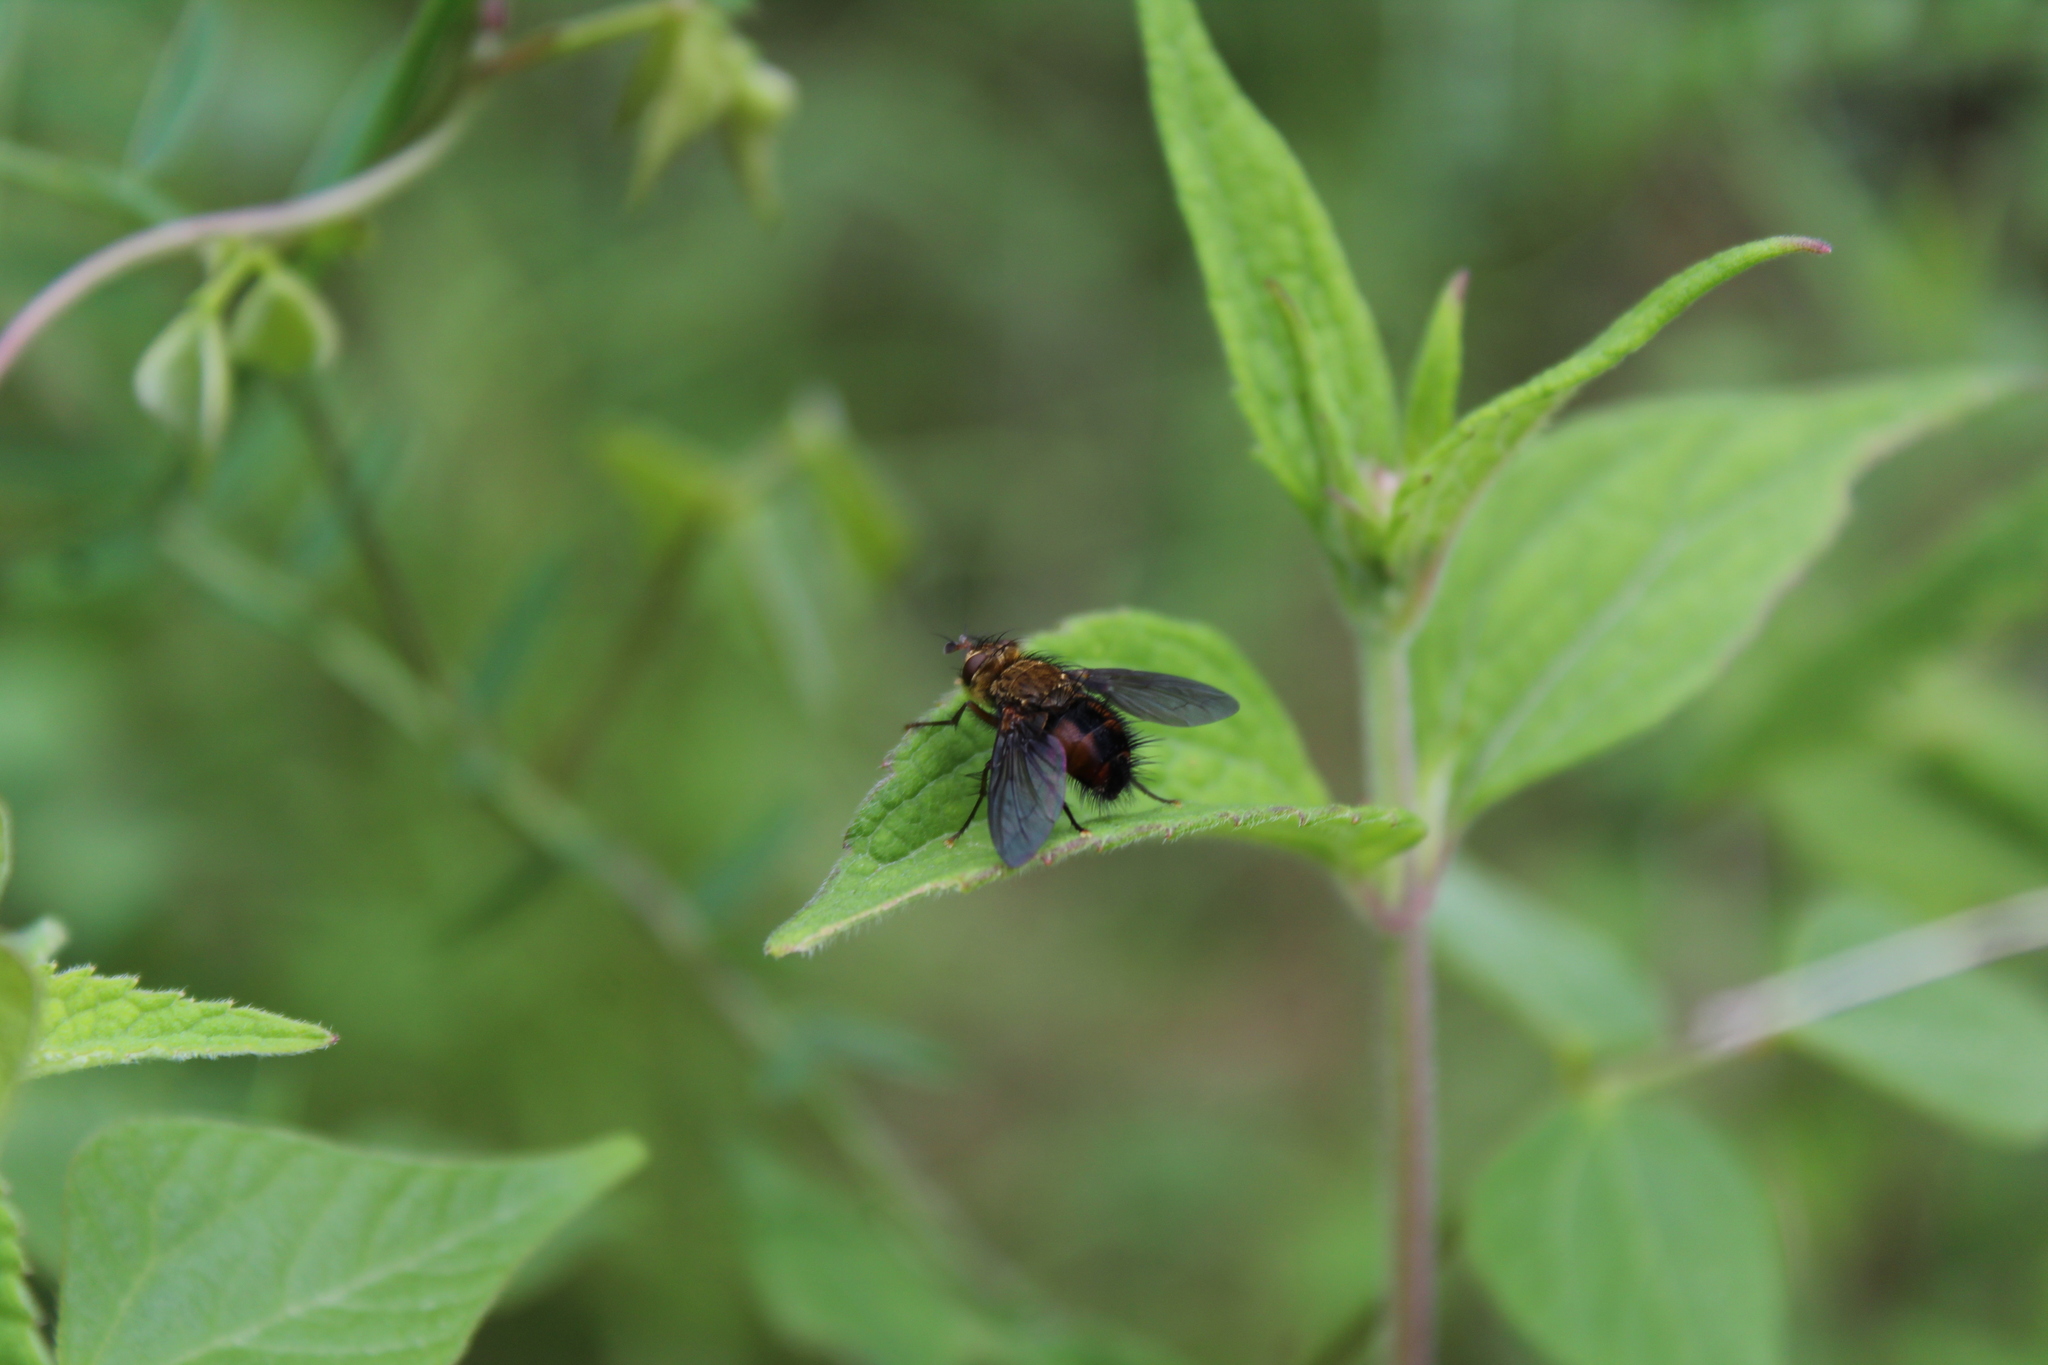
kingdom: Animalia
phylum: Arthropoda
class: Insecta
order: Diptera
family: Tachinidae
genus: Archytas
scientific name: Archytas apicifer
